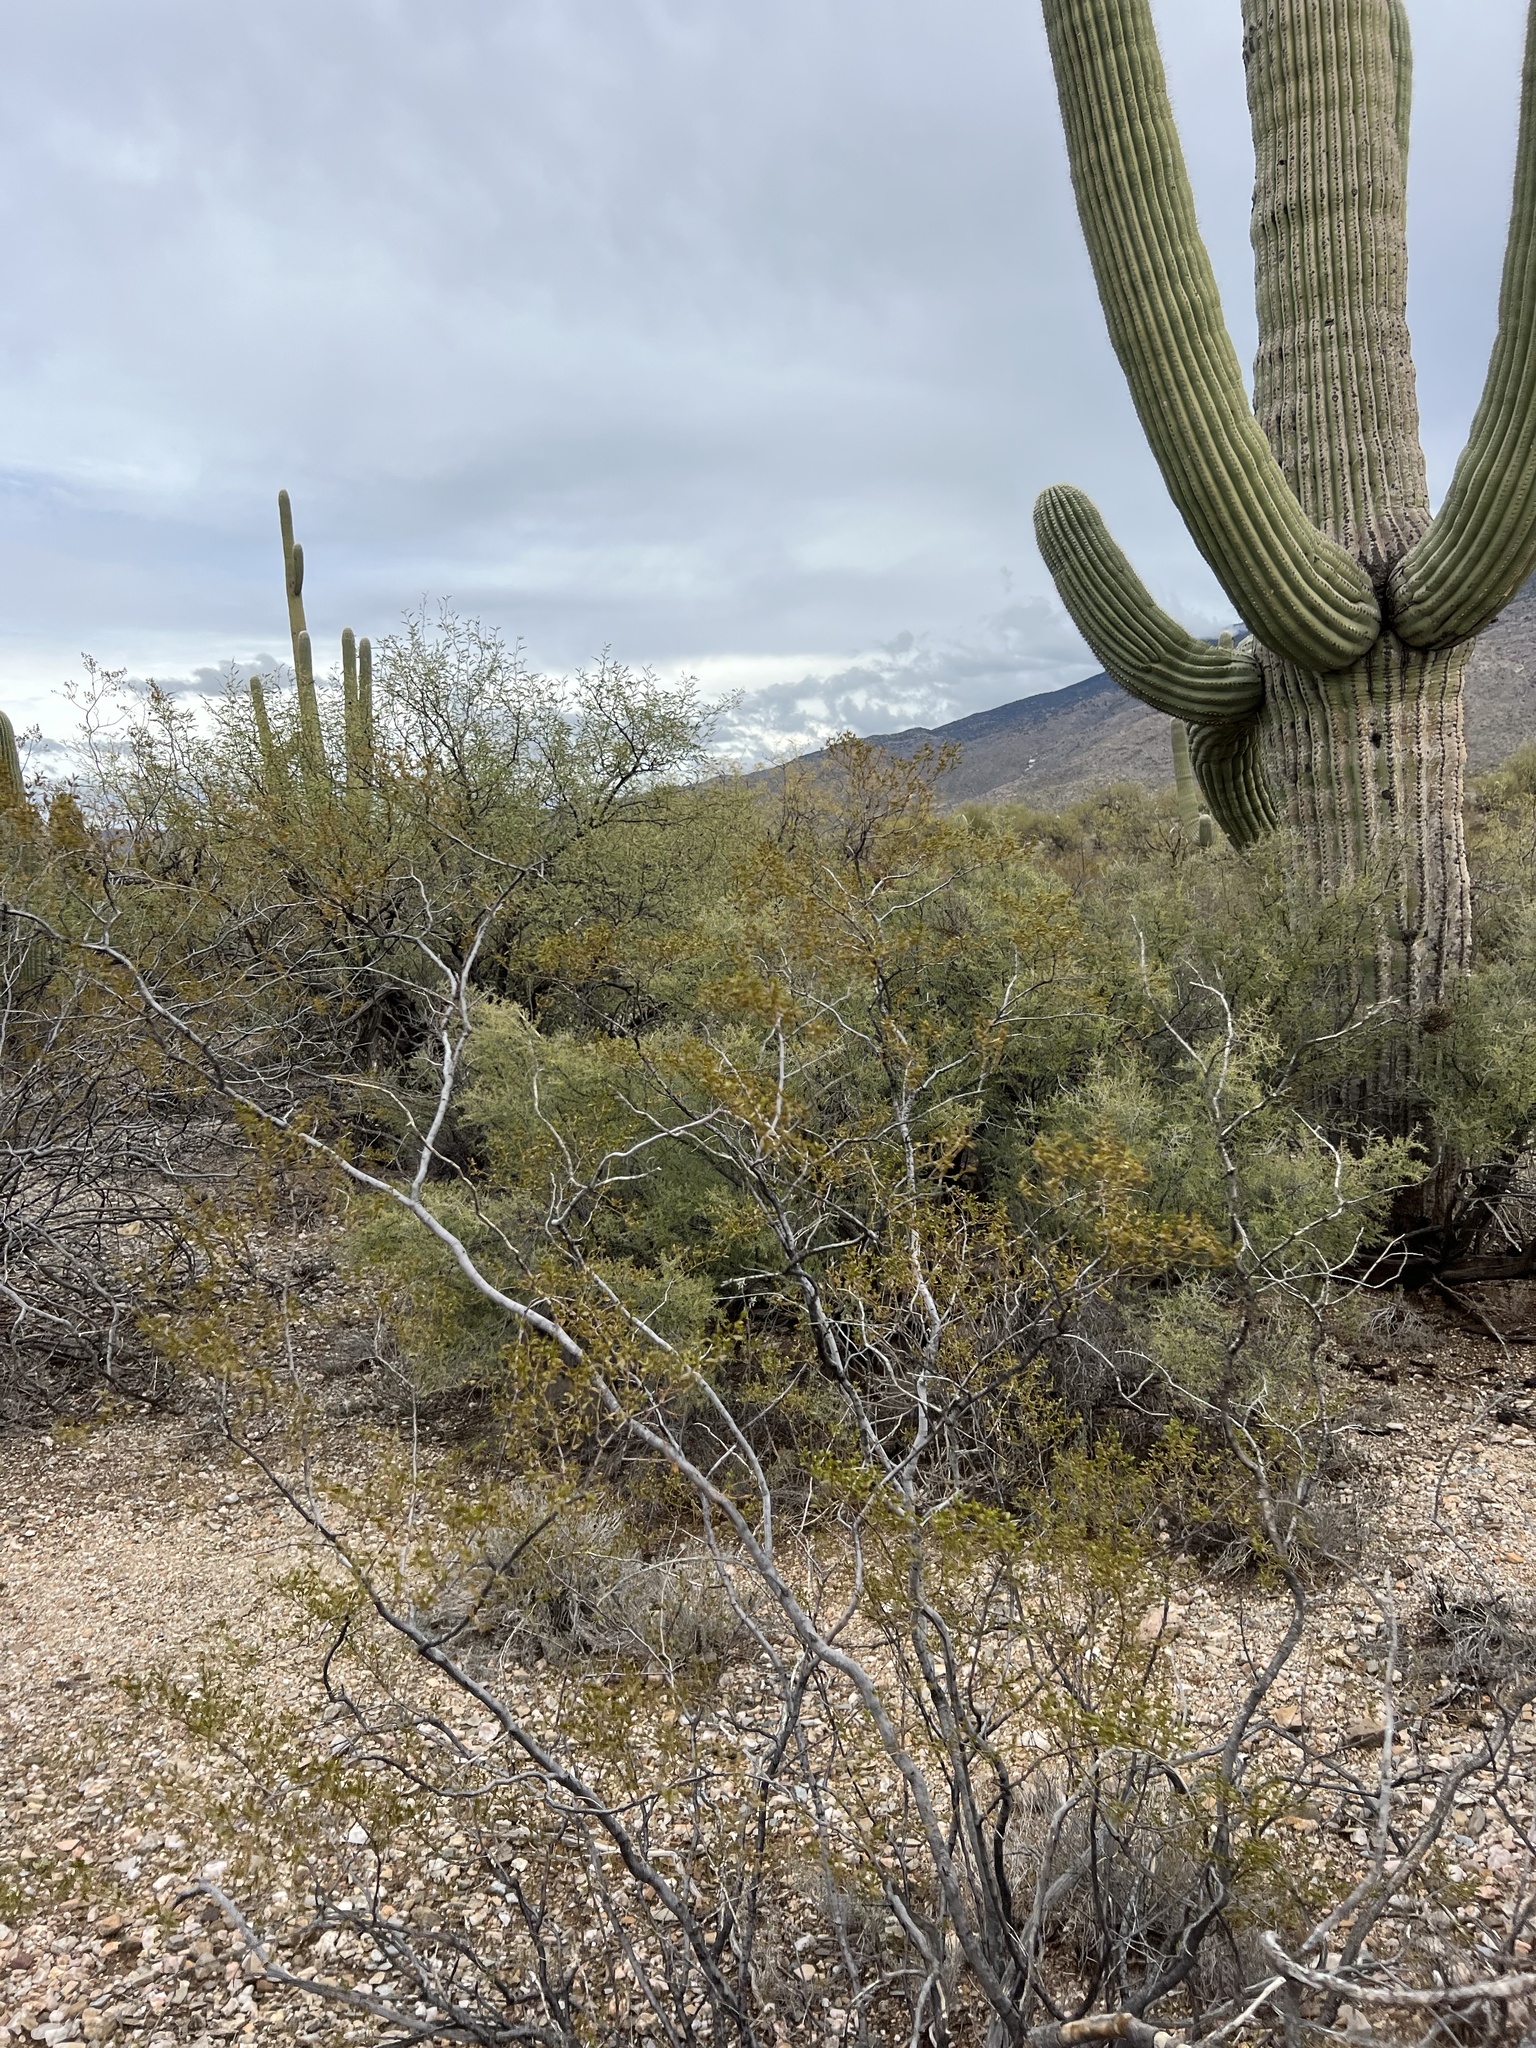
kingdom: Plantae
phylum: Tracheophyta
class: Magnoliopsida
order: Zygophyllales
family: Zygophyllaceae
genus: Larrea
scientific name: Larrea tridentata
